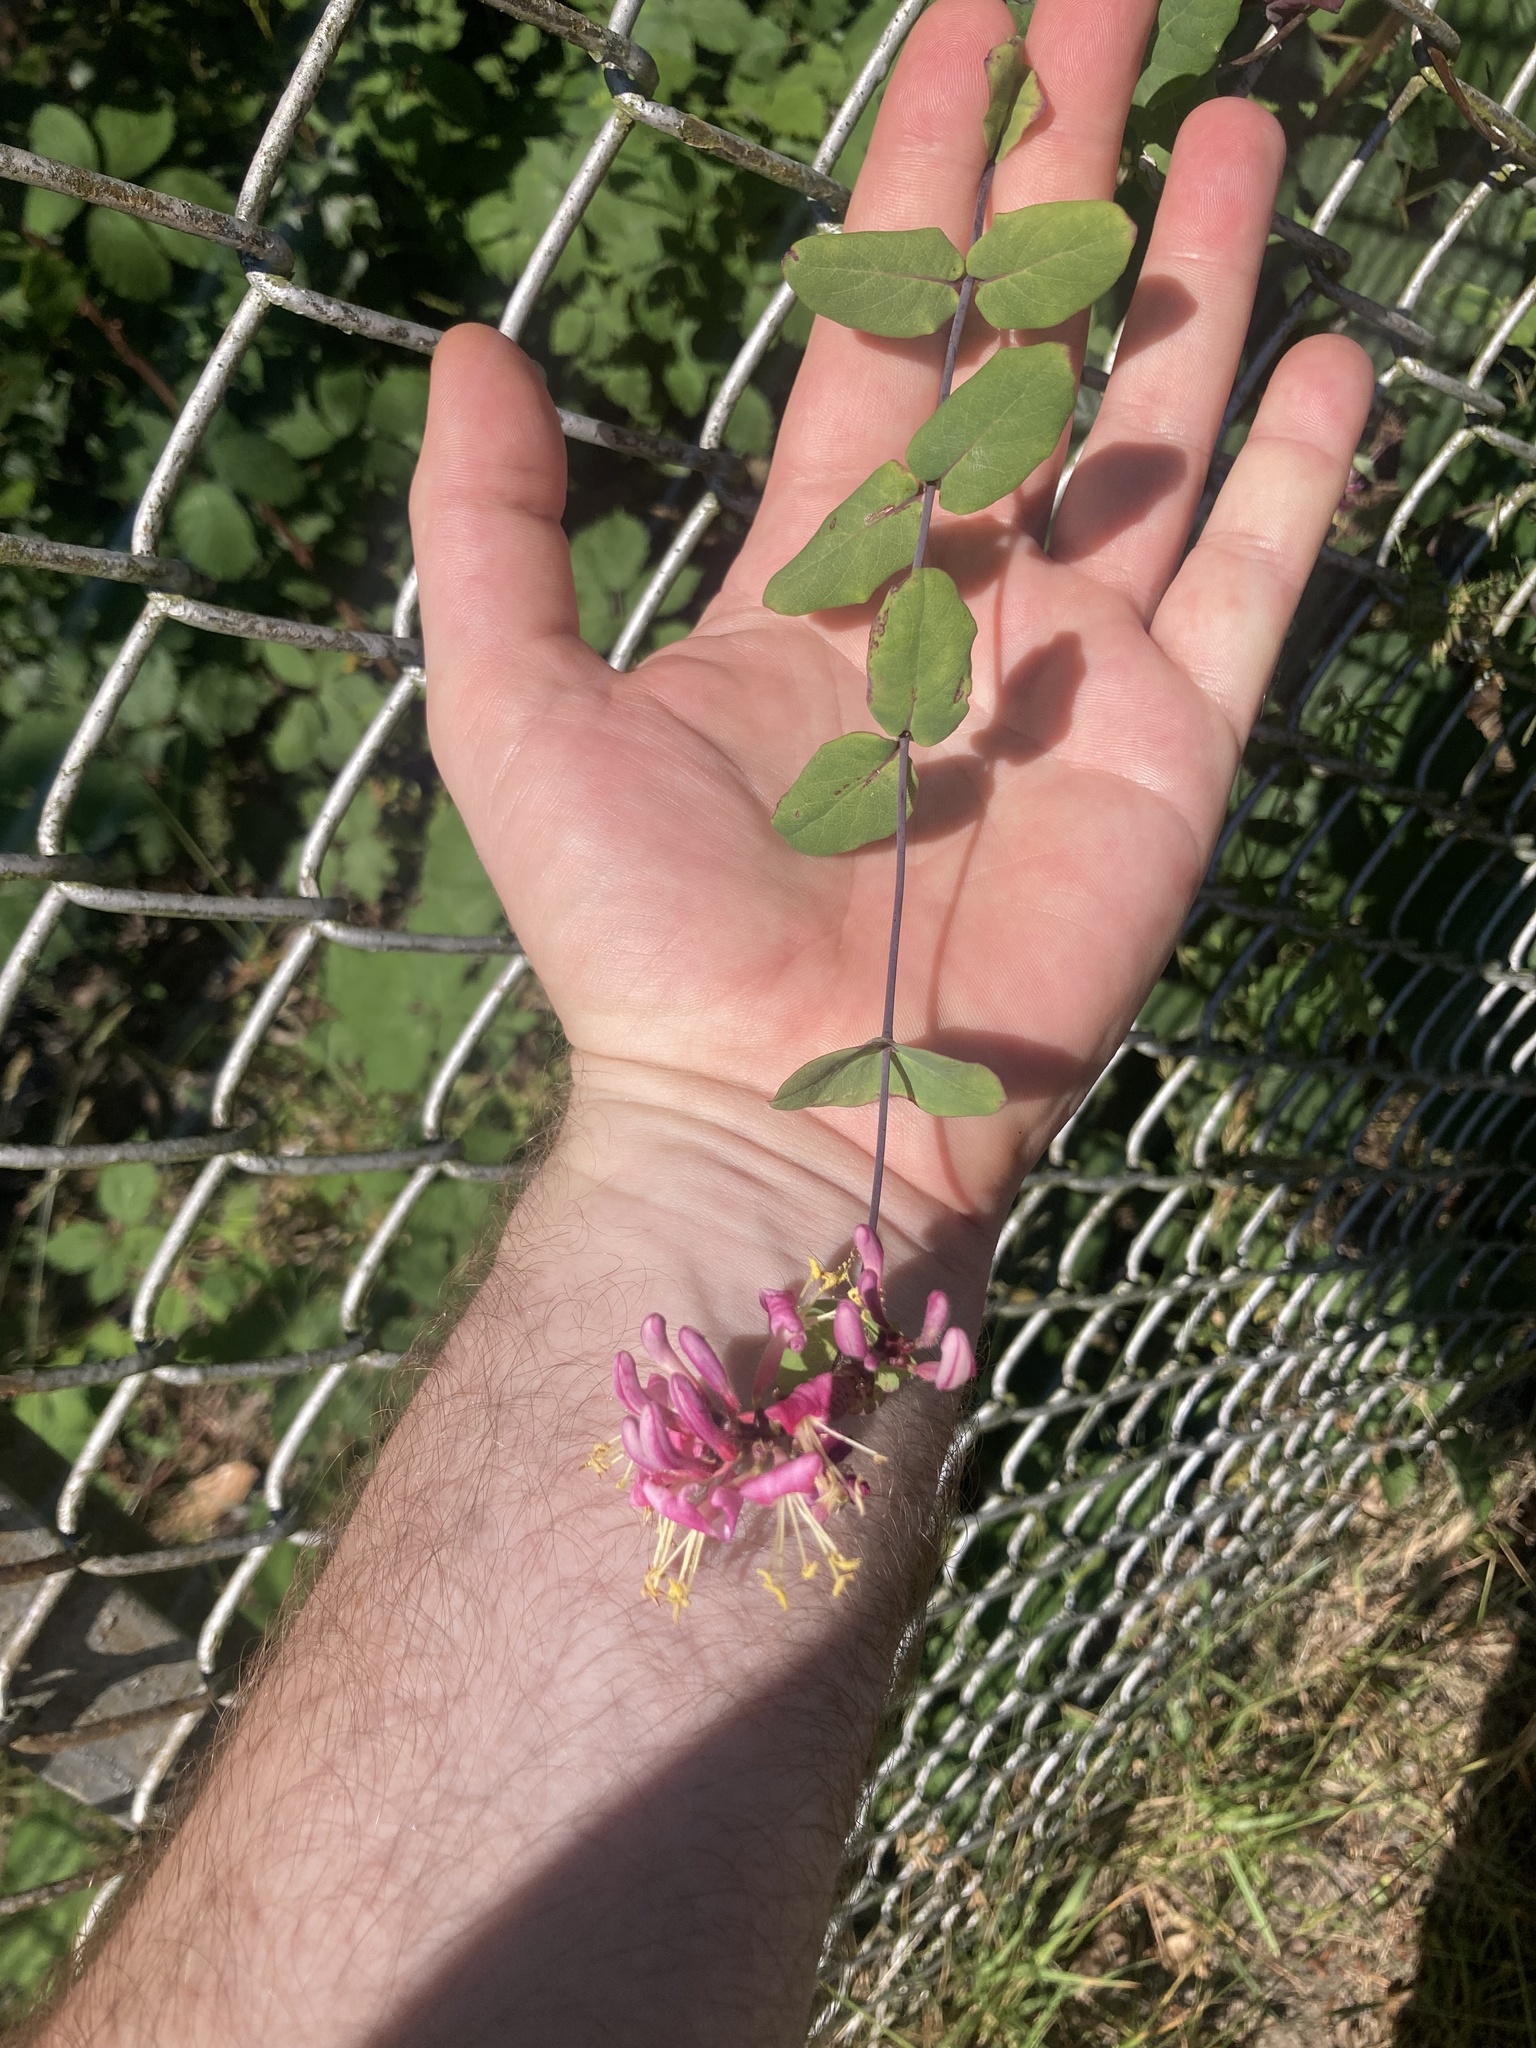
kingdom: Plantae
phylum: Tracheophyta
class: Magnoliopsida
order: Dipsacales
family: Caprifoliaceae
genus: Lonicera
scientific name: Lonicera hispidula
